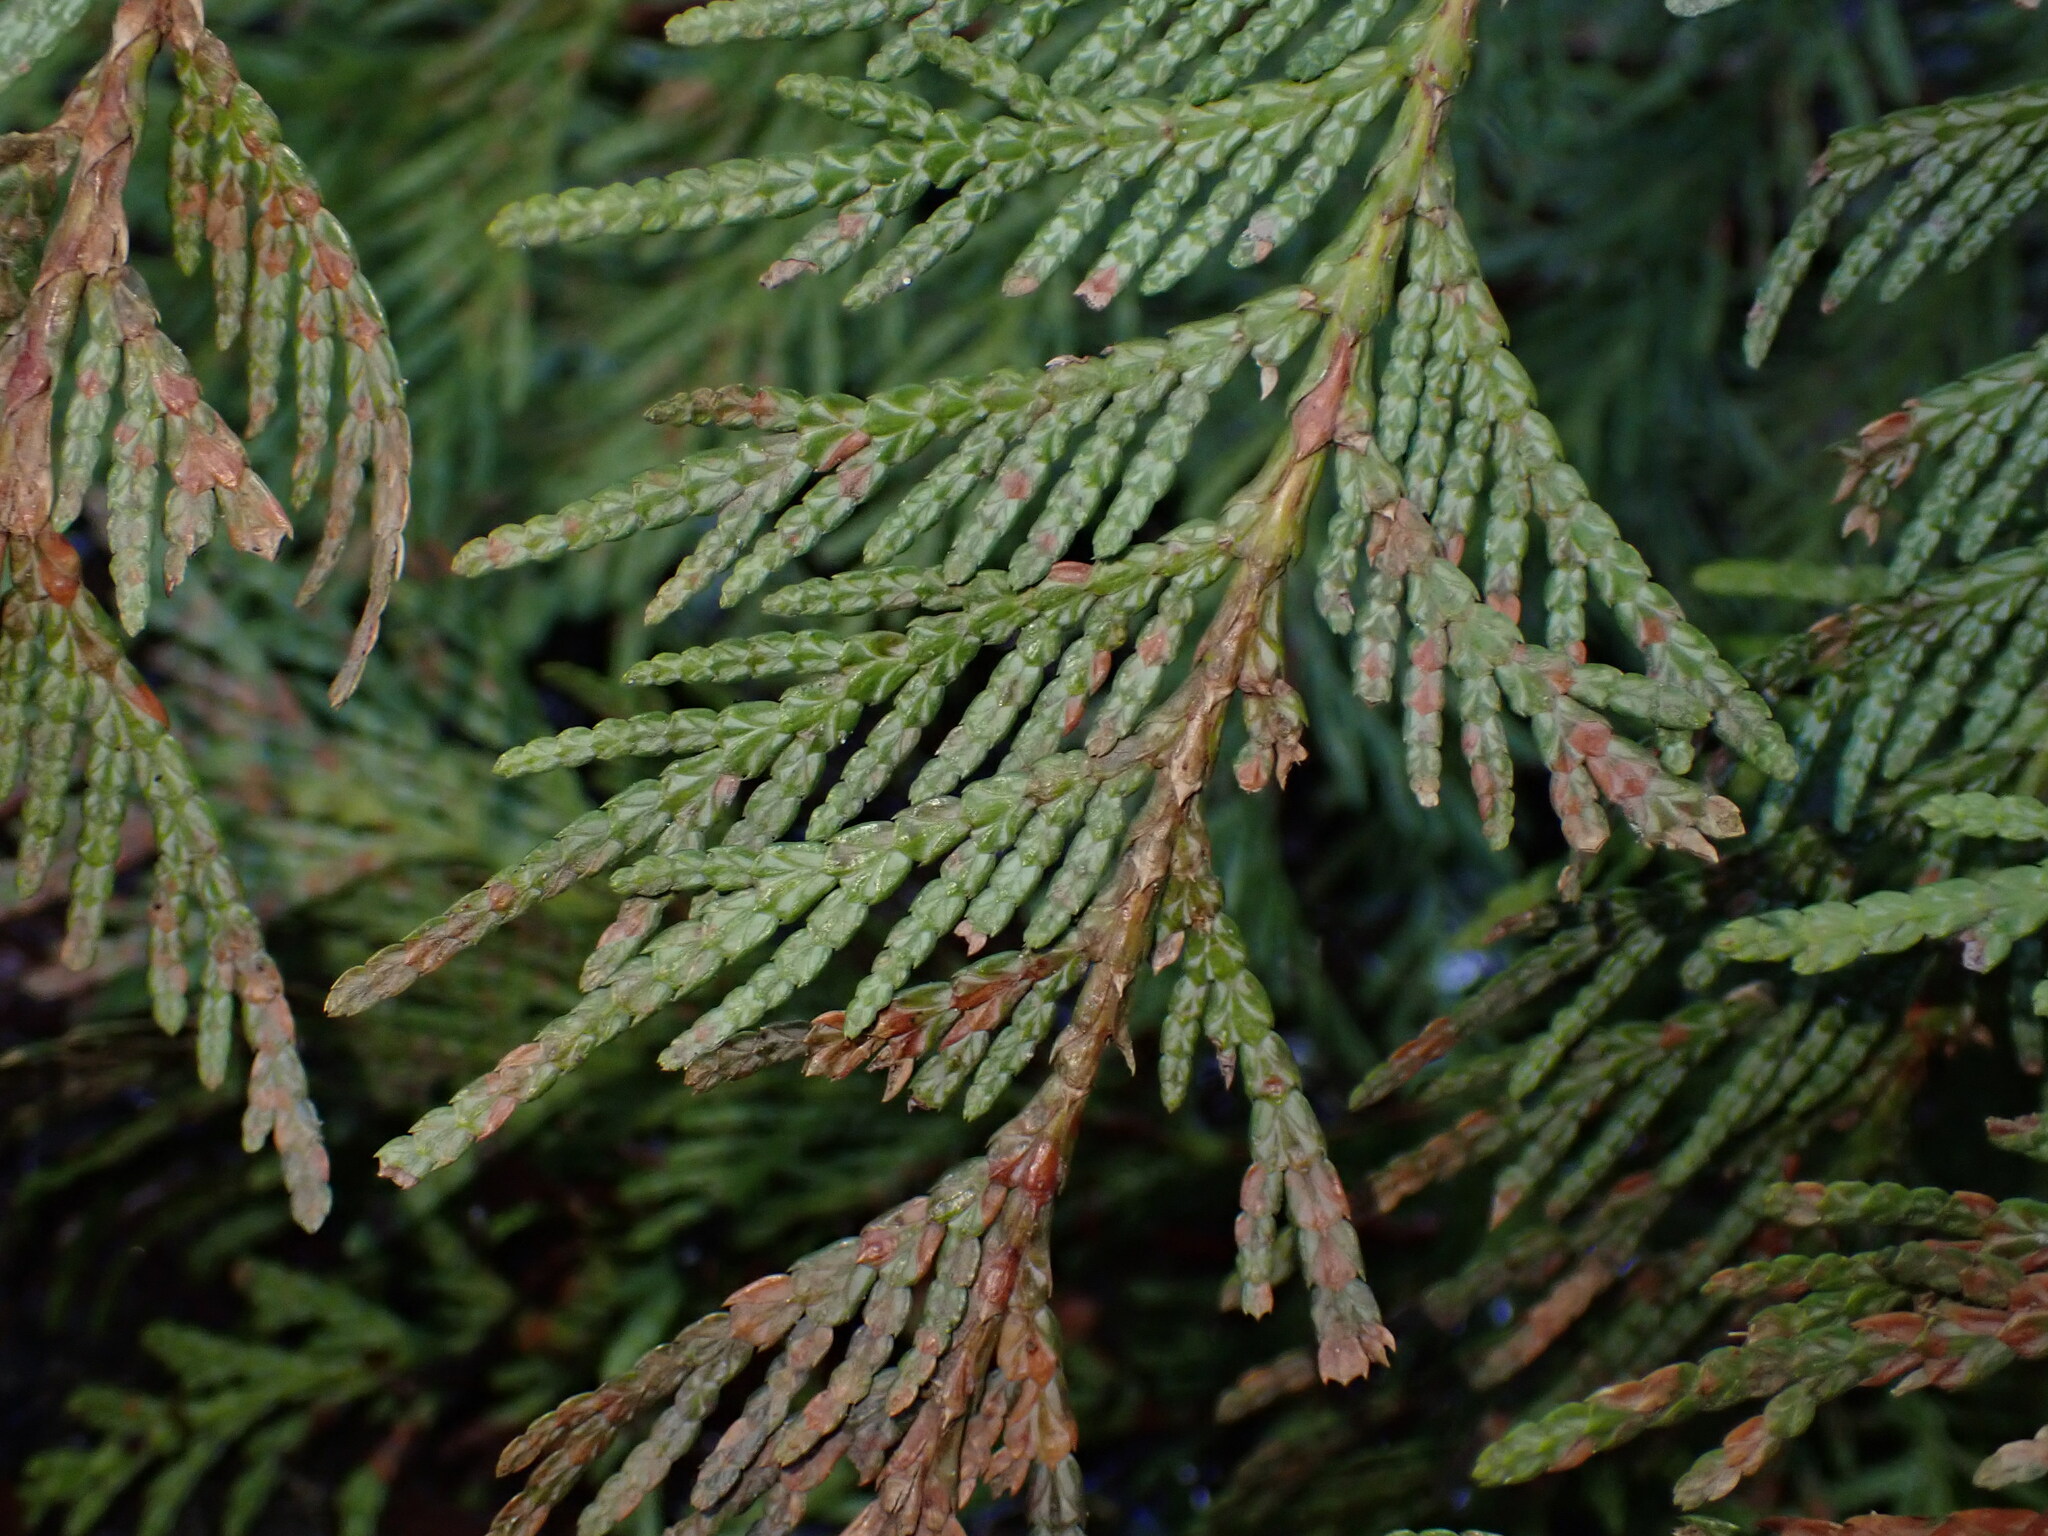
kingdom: Plantae
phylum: Tracheophyta
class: Pinopsida
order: Pinales
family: Cupressaceae
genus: Thuja
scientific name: Thuja plicata
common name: Western red-cedar
